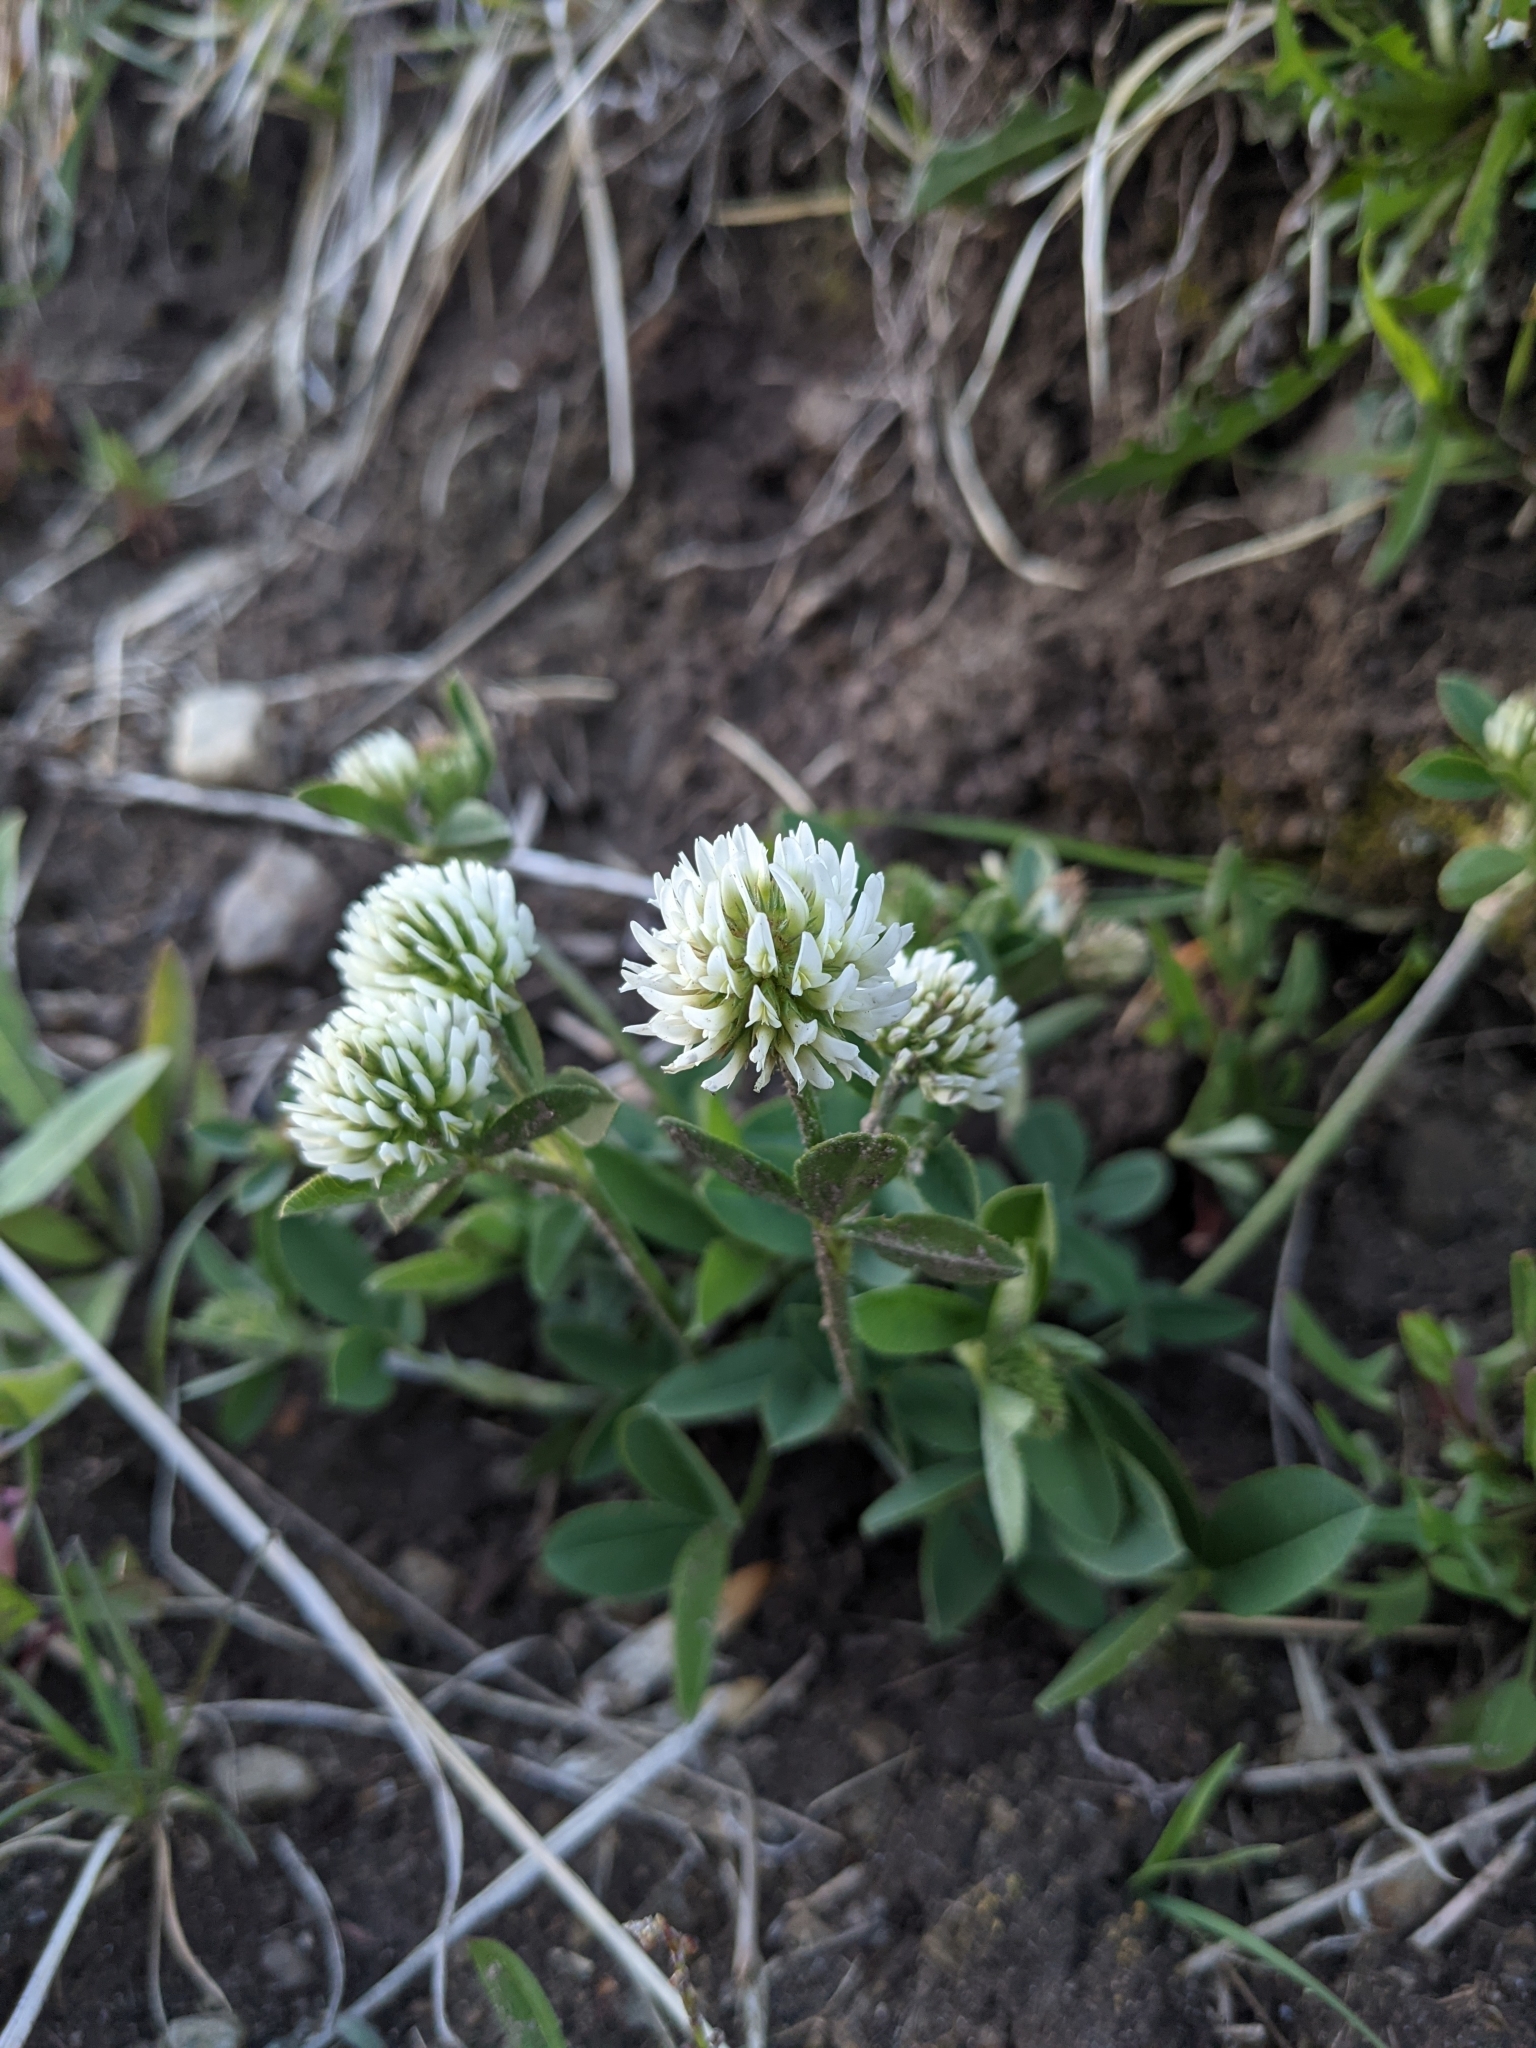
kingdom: Plantae
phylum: Tracheophyta
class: Magnoliopsida
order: Fabales
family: Fabaceae
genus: Trifolium
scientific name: Trifolium montanum
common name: Mountain clover
